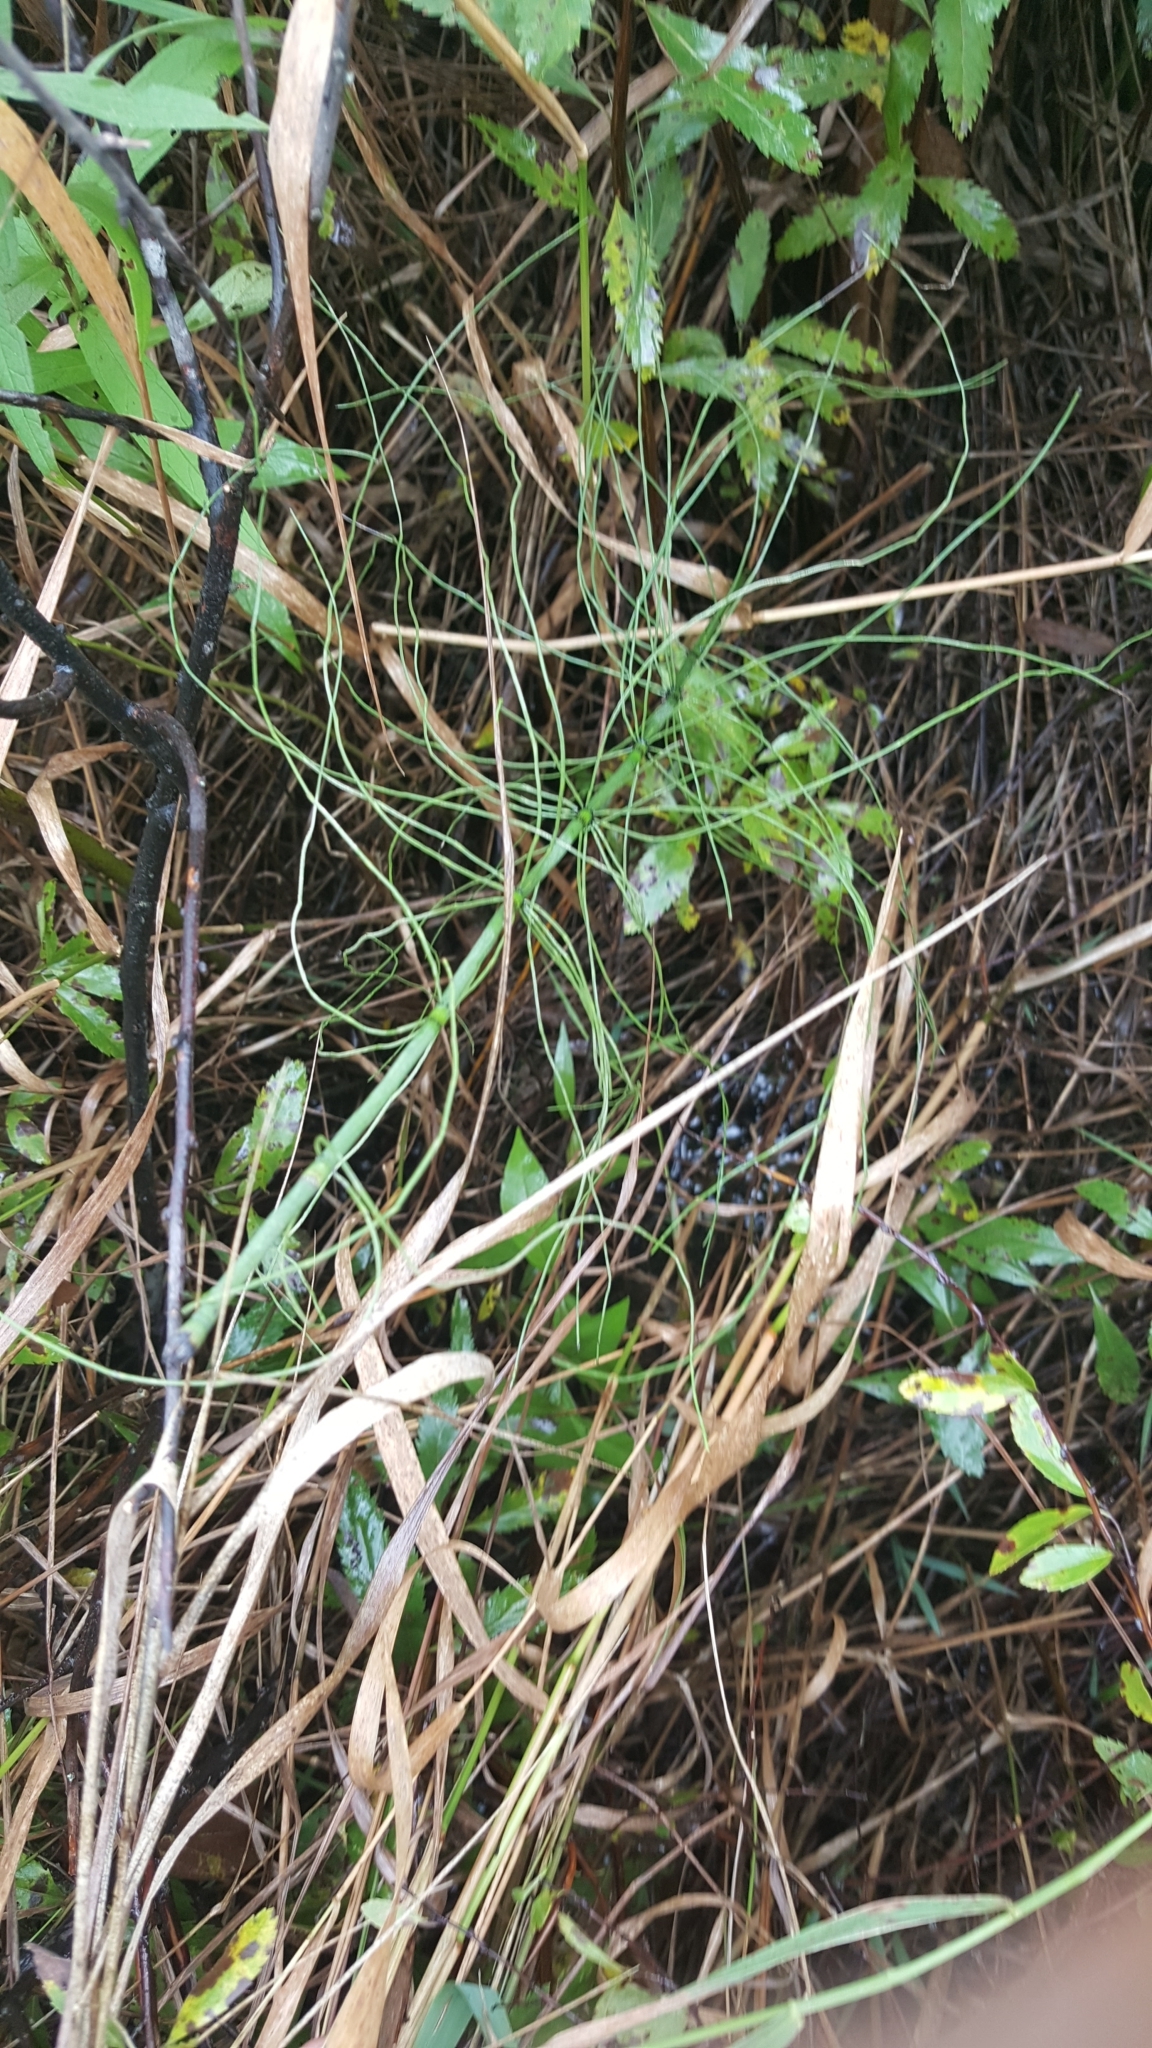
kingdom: Plantae
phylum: Tracheophyta
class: Polypodiopsida
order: Equisetales
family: Equisetaceae
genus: Equisetum
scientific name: Equisetum fluviatile
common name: Water horsetail
